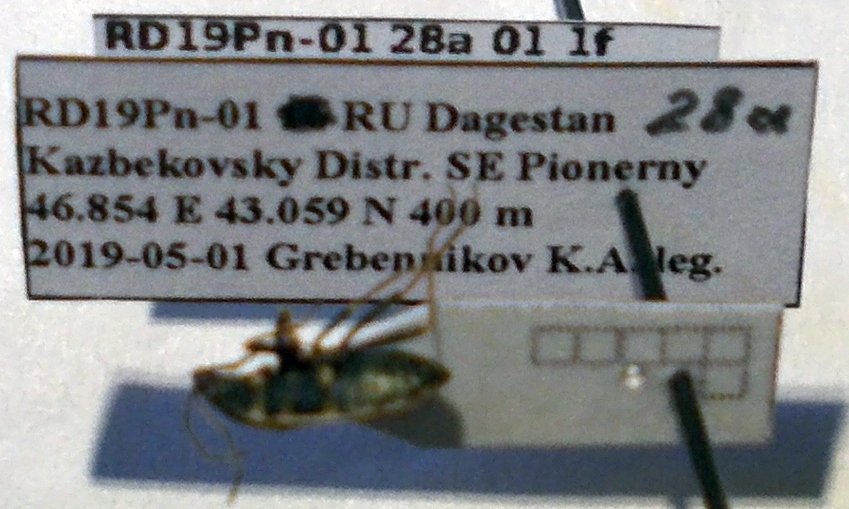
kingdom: Animalia
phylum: Arthropoda
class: Insecta
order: Hemiptera
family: Rhyparochromidae
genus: Xanthochilus
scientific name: Xanthochilus omissus
